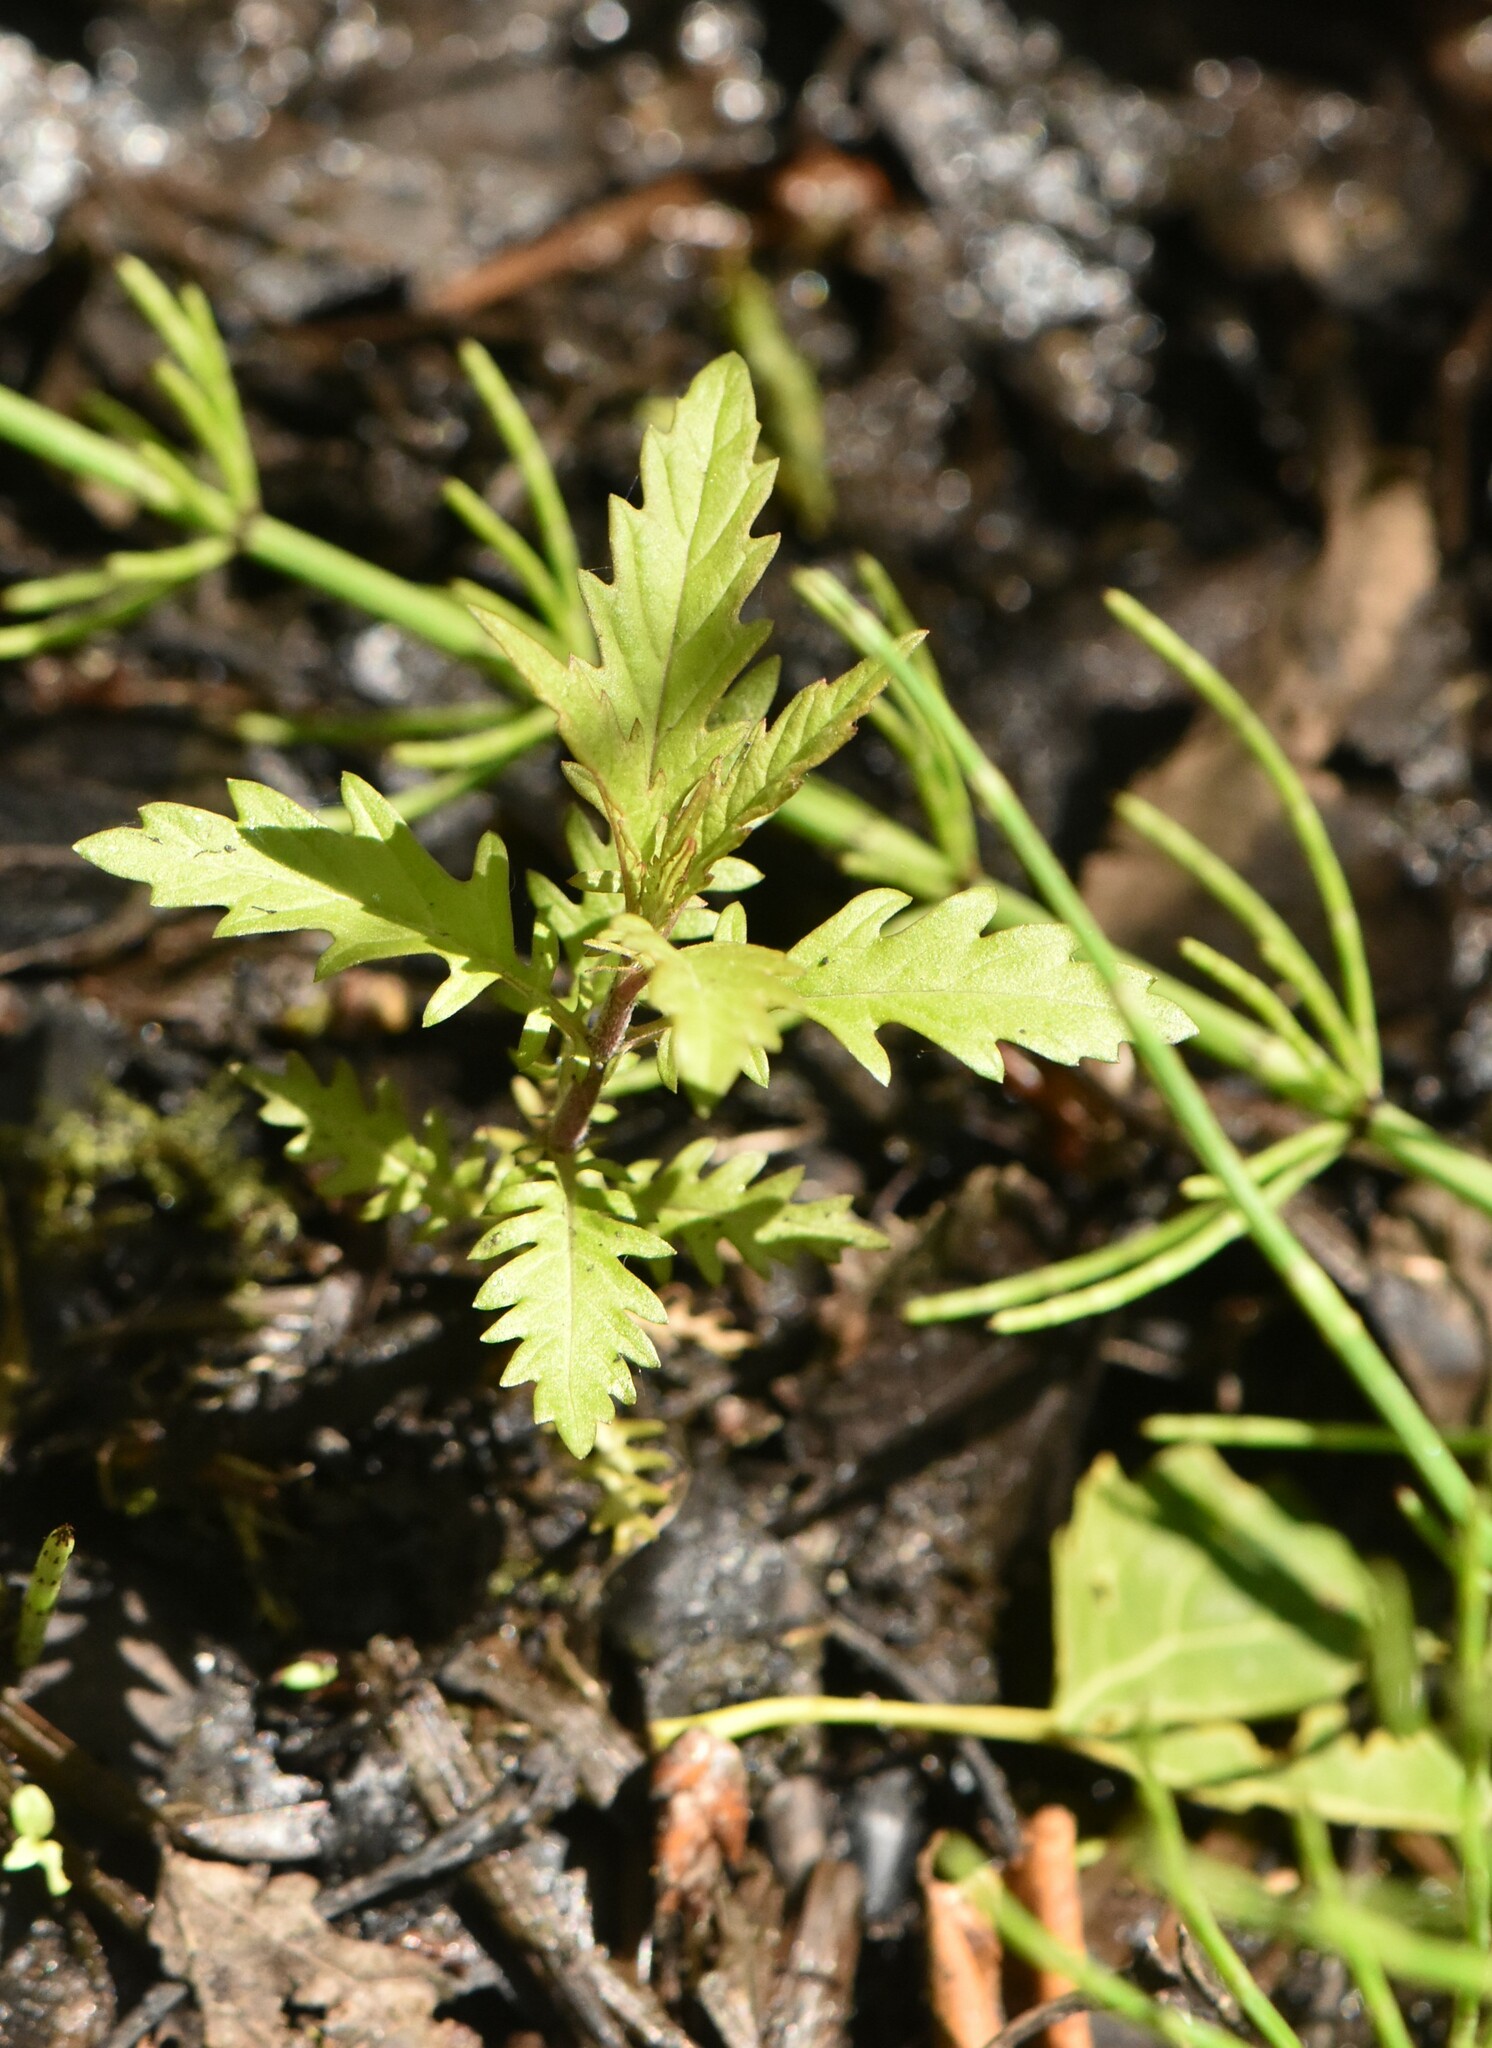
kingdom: Plantae
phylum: Tracheophyta
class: Magnoliopsida
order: Lamiales
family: Lamiaceae
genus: Lycopus
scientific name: Lycopus europaeus
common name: European bugleweed
